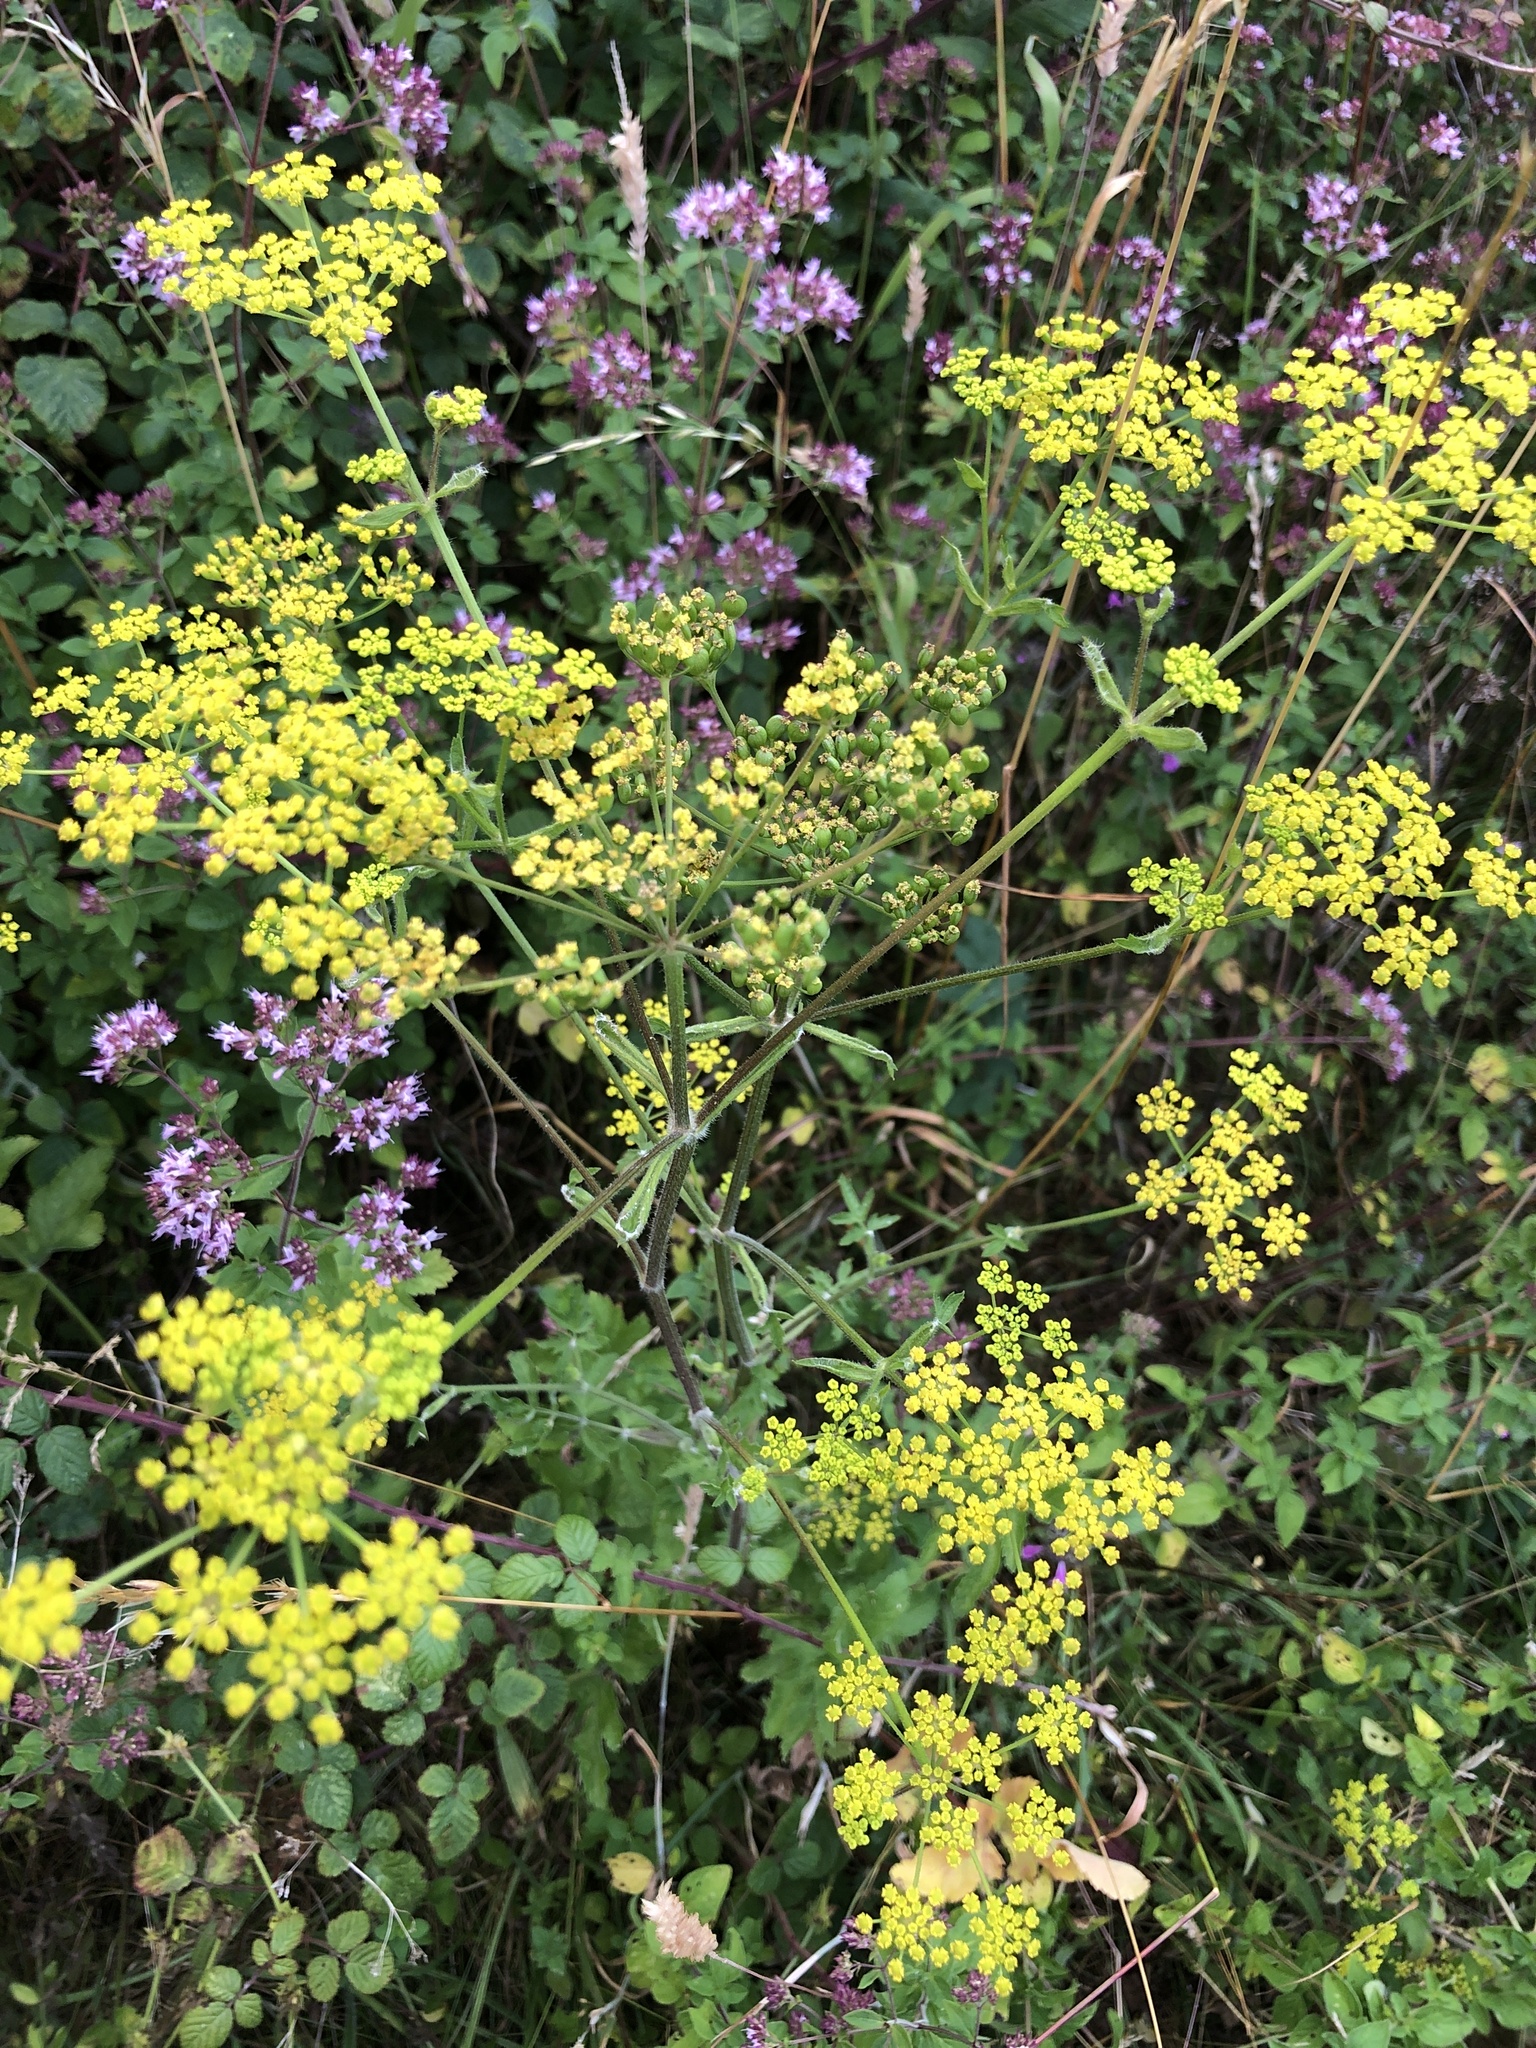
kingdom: Plantae
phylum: Tracheophyta
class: Magnoliopsida
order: Apiales
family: Apiaceae
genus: Pastinaca
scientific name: Pastinaca sativa
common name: Wild parsnip
